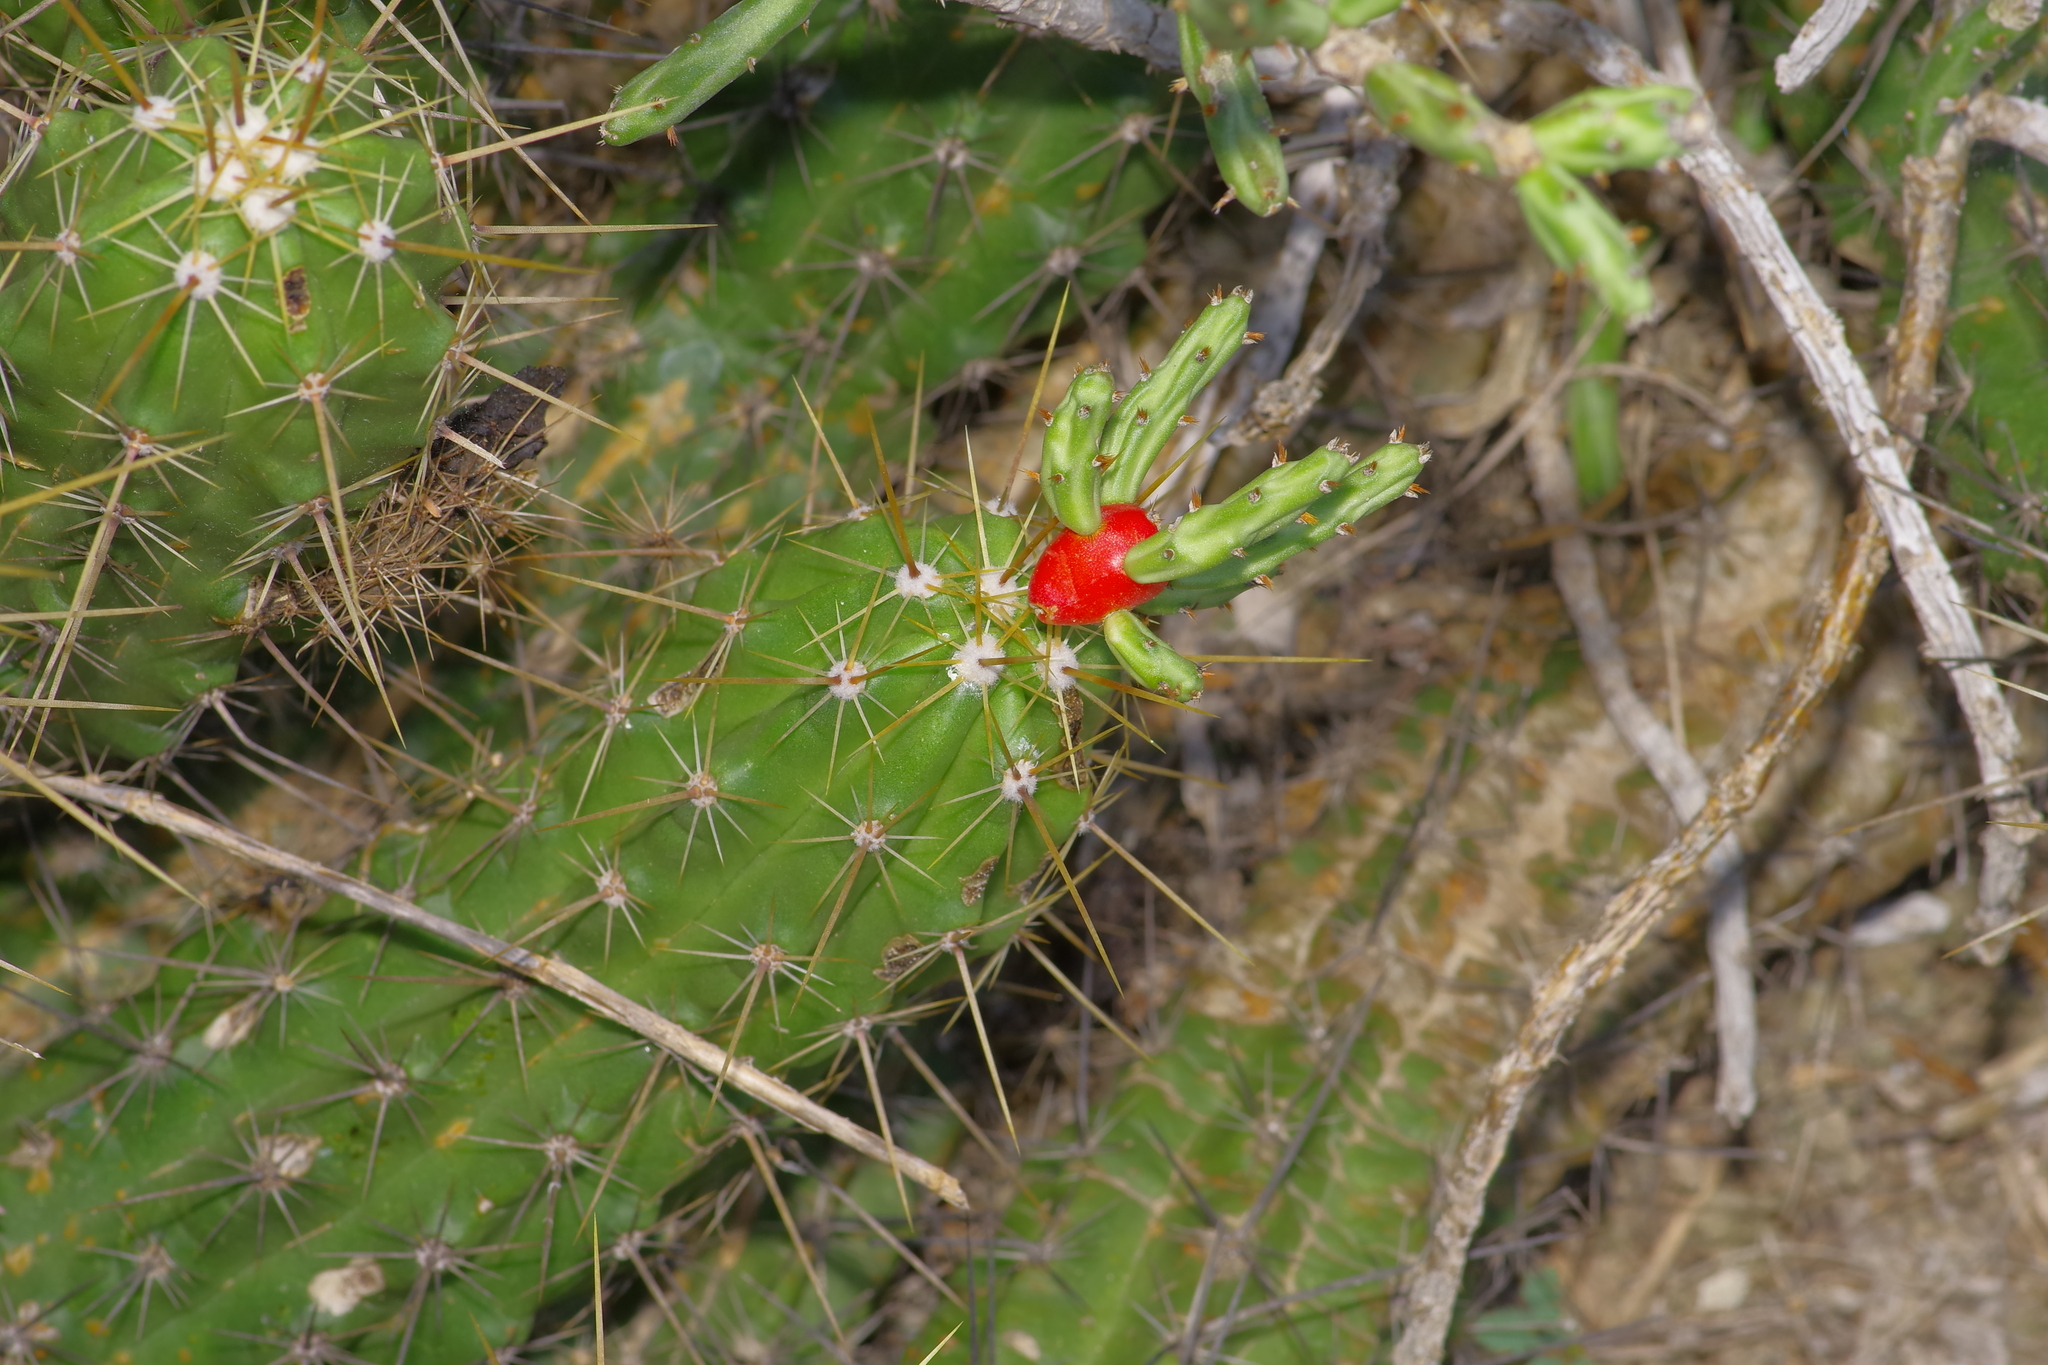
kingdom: Plantae
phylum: Tracheophyta
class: Magnoliopsida
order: Caryophyllales
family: Cactaceae
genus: Echinocereus
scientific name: Echinocereus enneacanthus
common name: Pitaya
